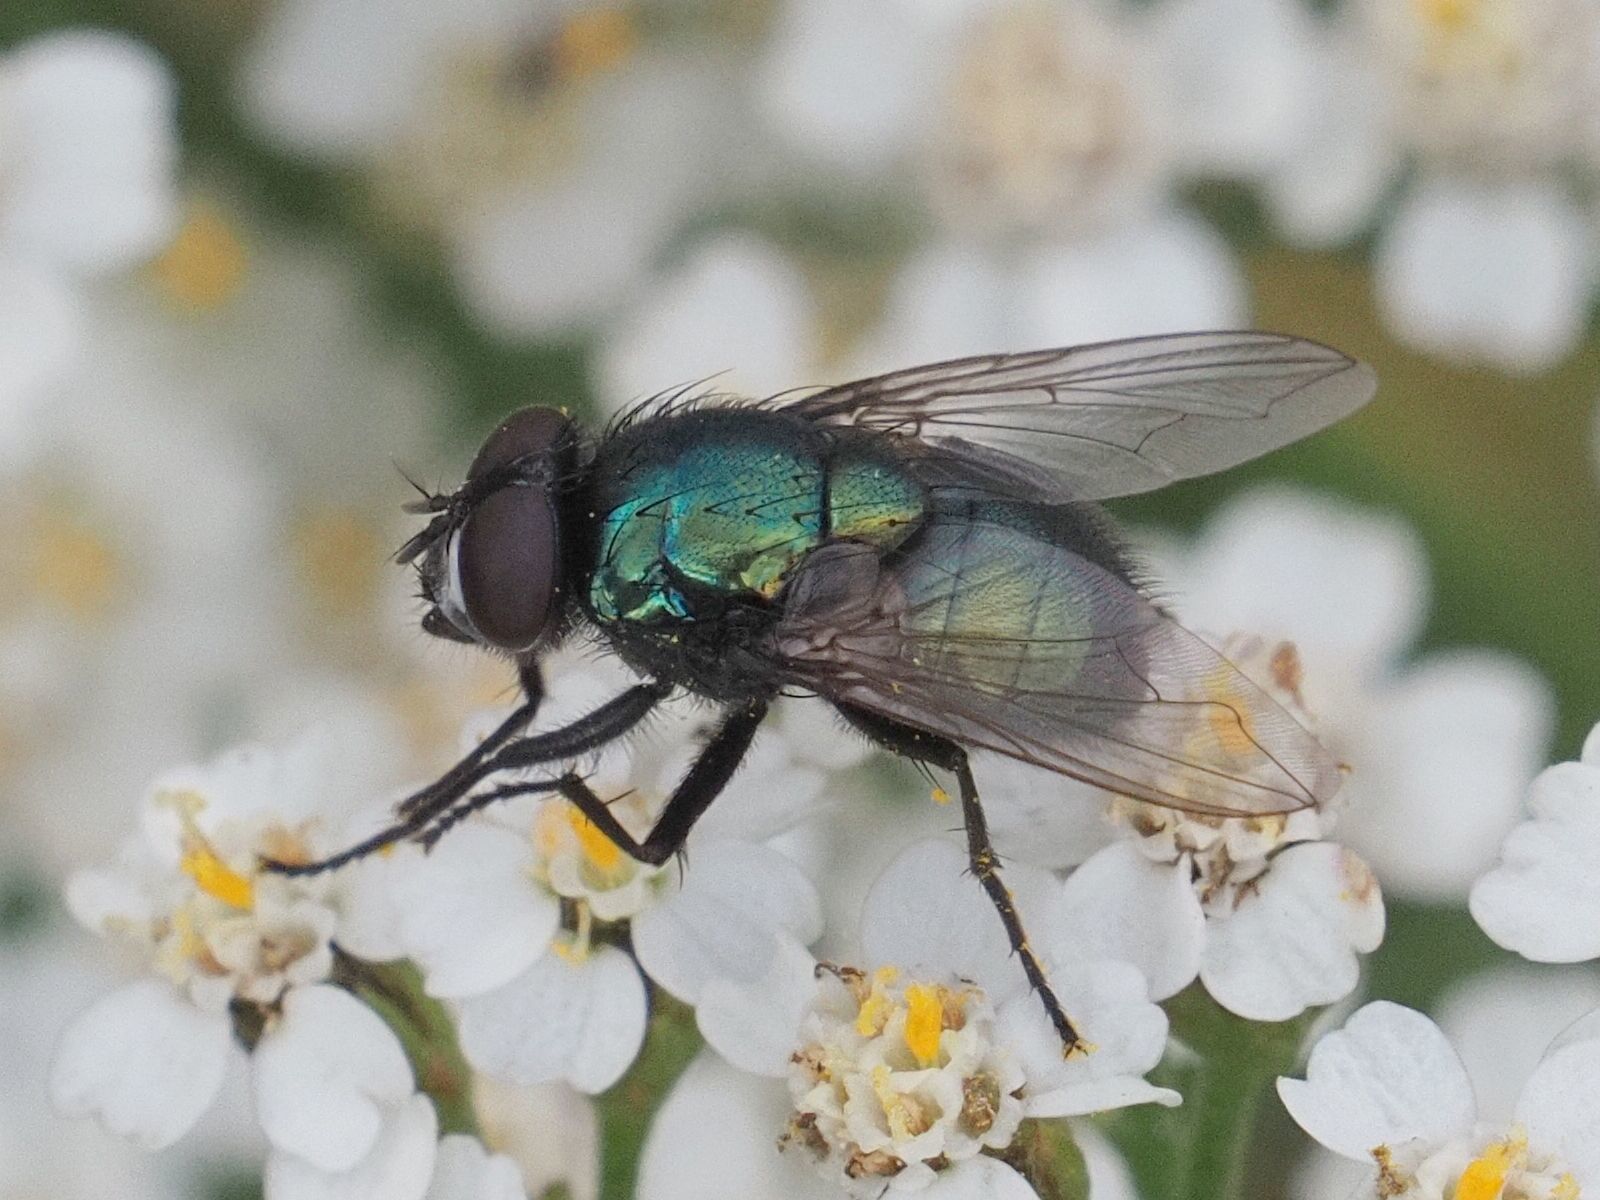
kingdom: Animalia
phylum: Arthropoda
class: Insecta
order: Diptera
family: Muscidae
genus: Neomyia
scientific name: Neomyia cornicina
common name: House fly
